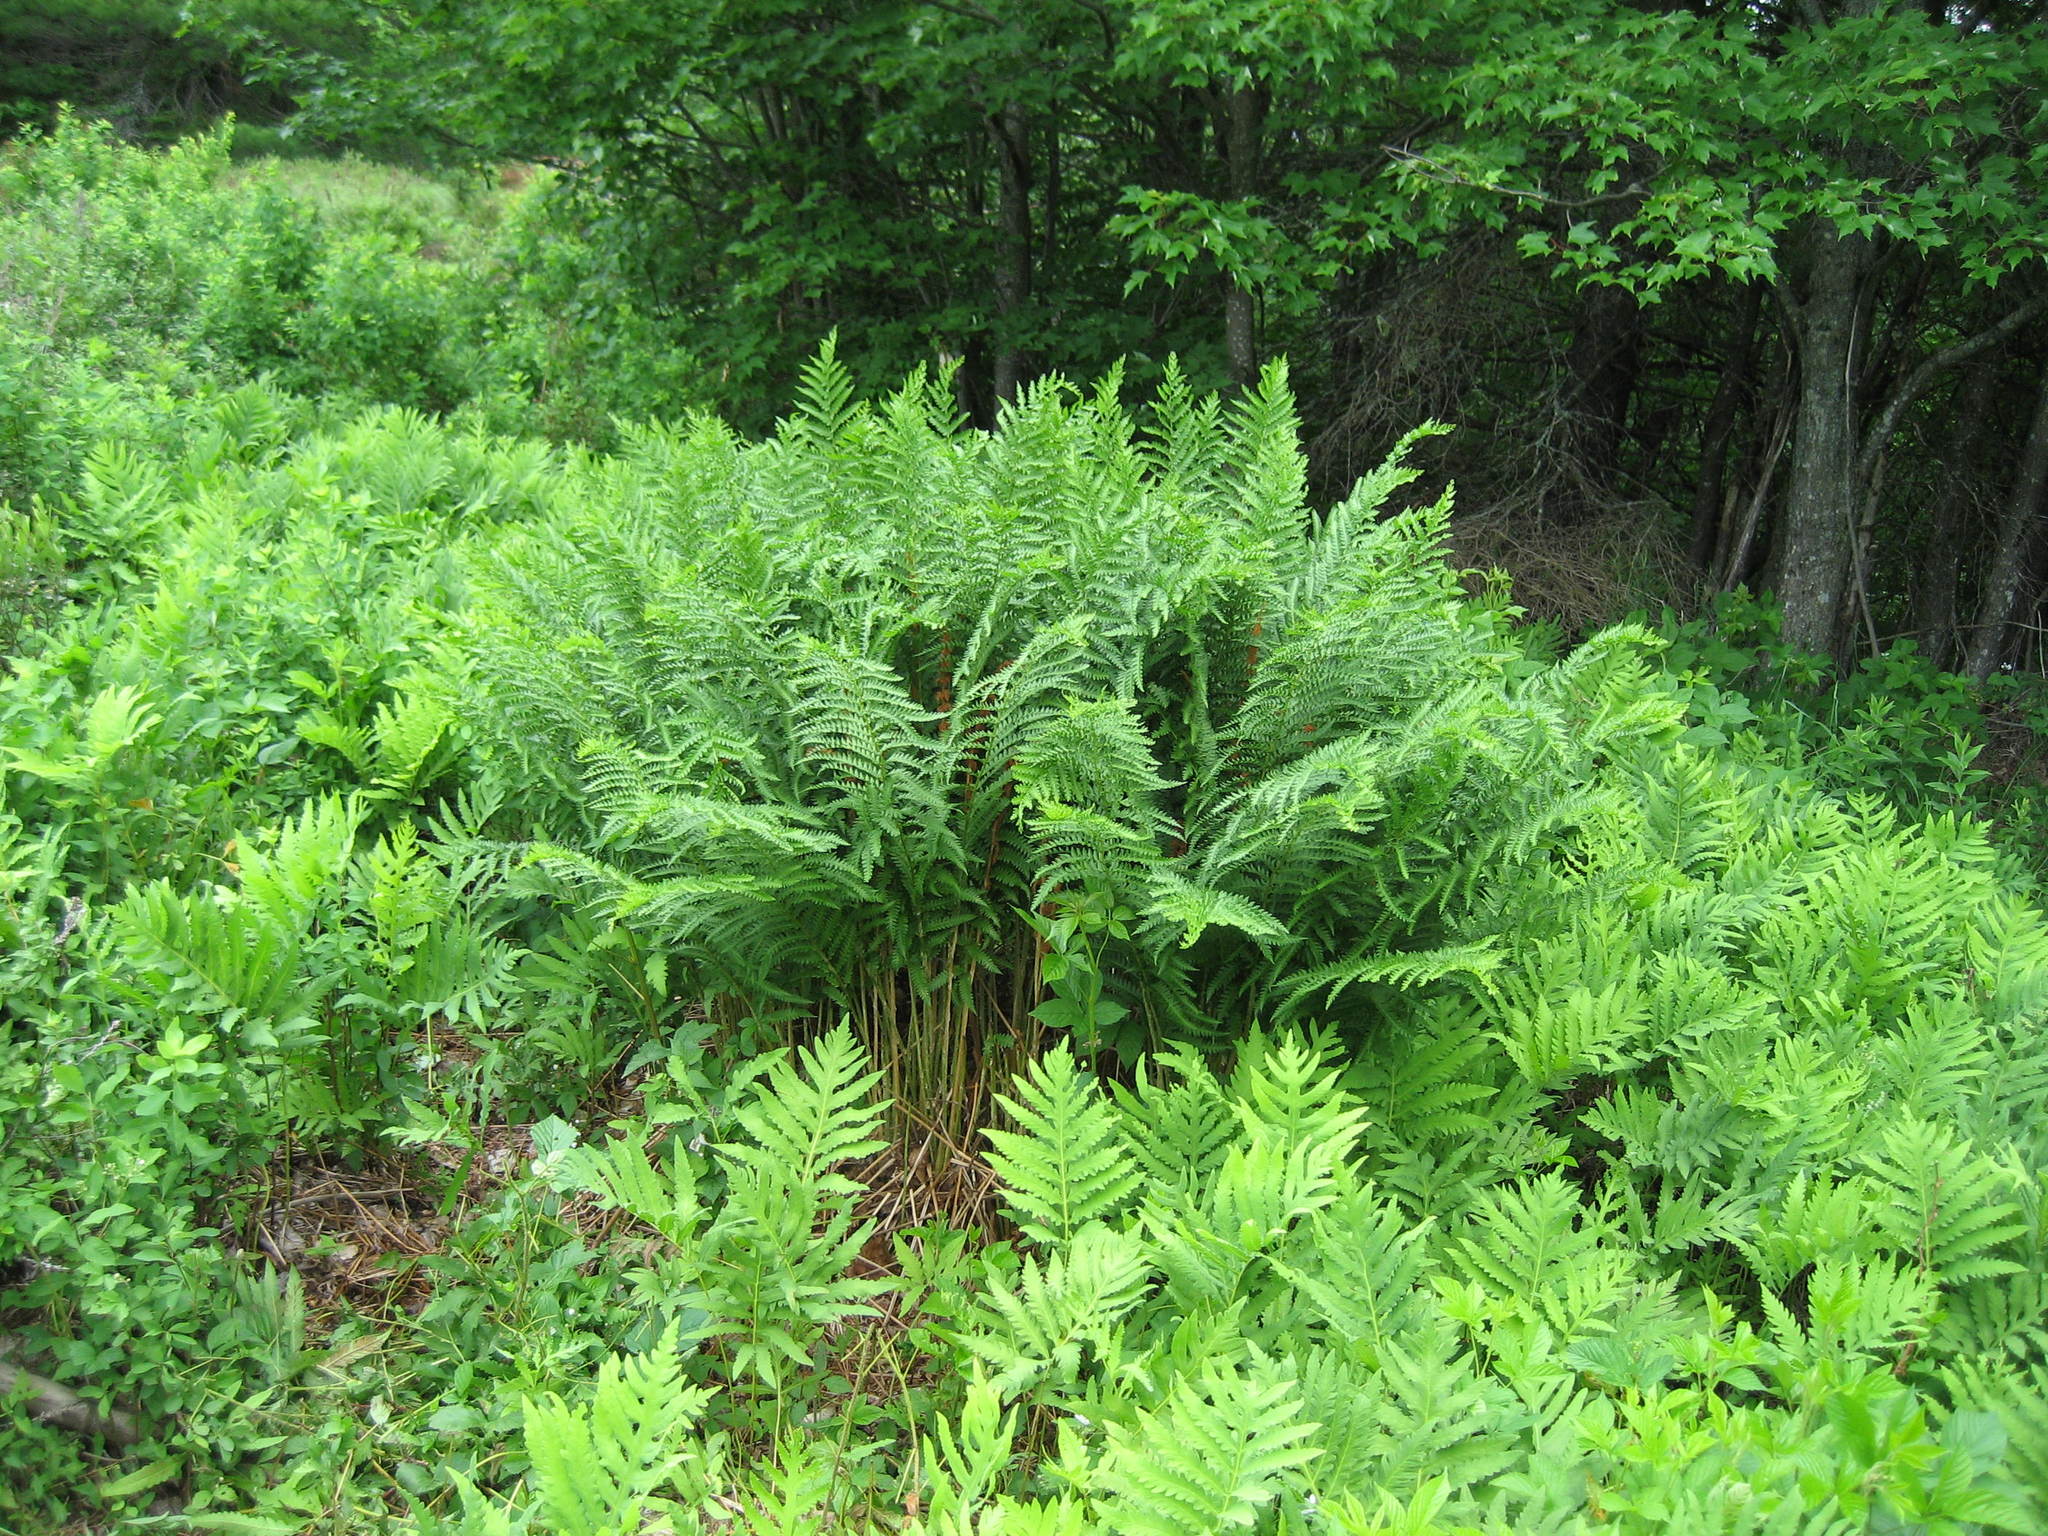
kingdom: Plantae
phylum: Tracheophyta
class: Polypodiopsida
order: Osmundales
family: Osmundaceae
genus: Osmundastrum
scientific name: Osmundastrum cinnamomeum
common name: Cinnamon fern
